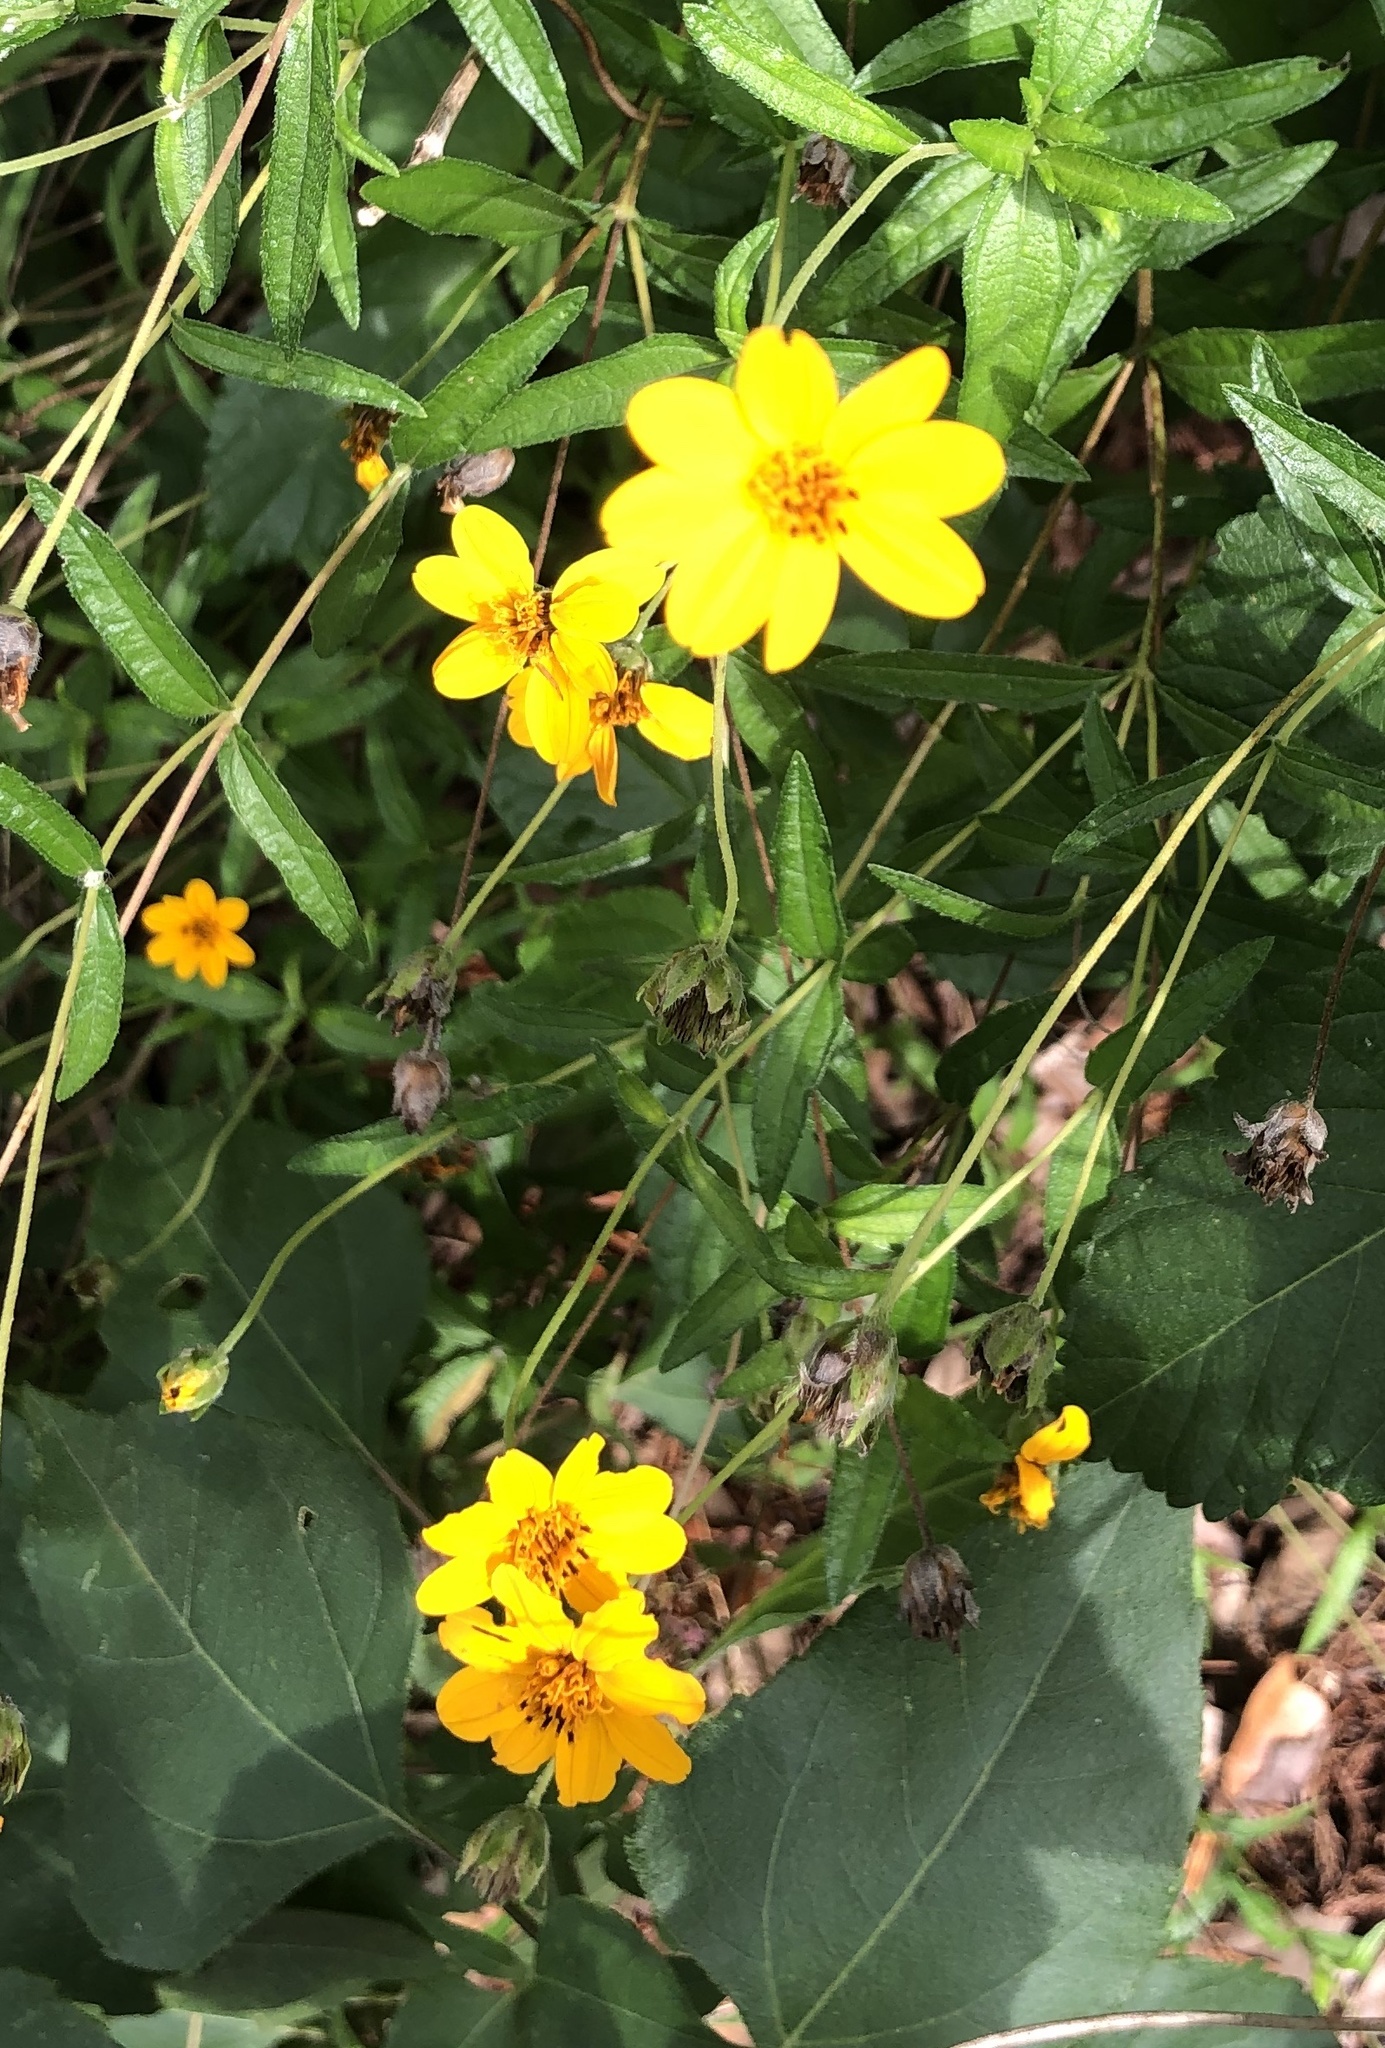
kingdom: Plantae
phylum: Tracheophyta
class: Magnoliopsida
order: Asterales
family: Asteraceae
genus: Wedelia
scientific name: Wedelia acapulcensis
